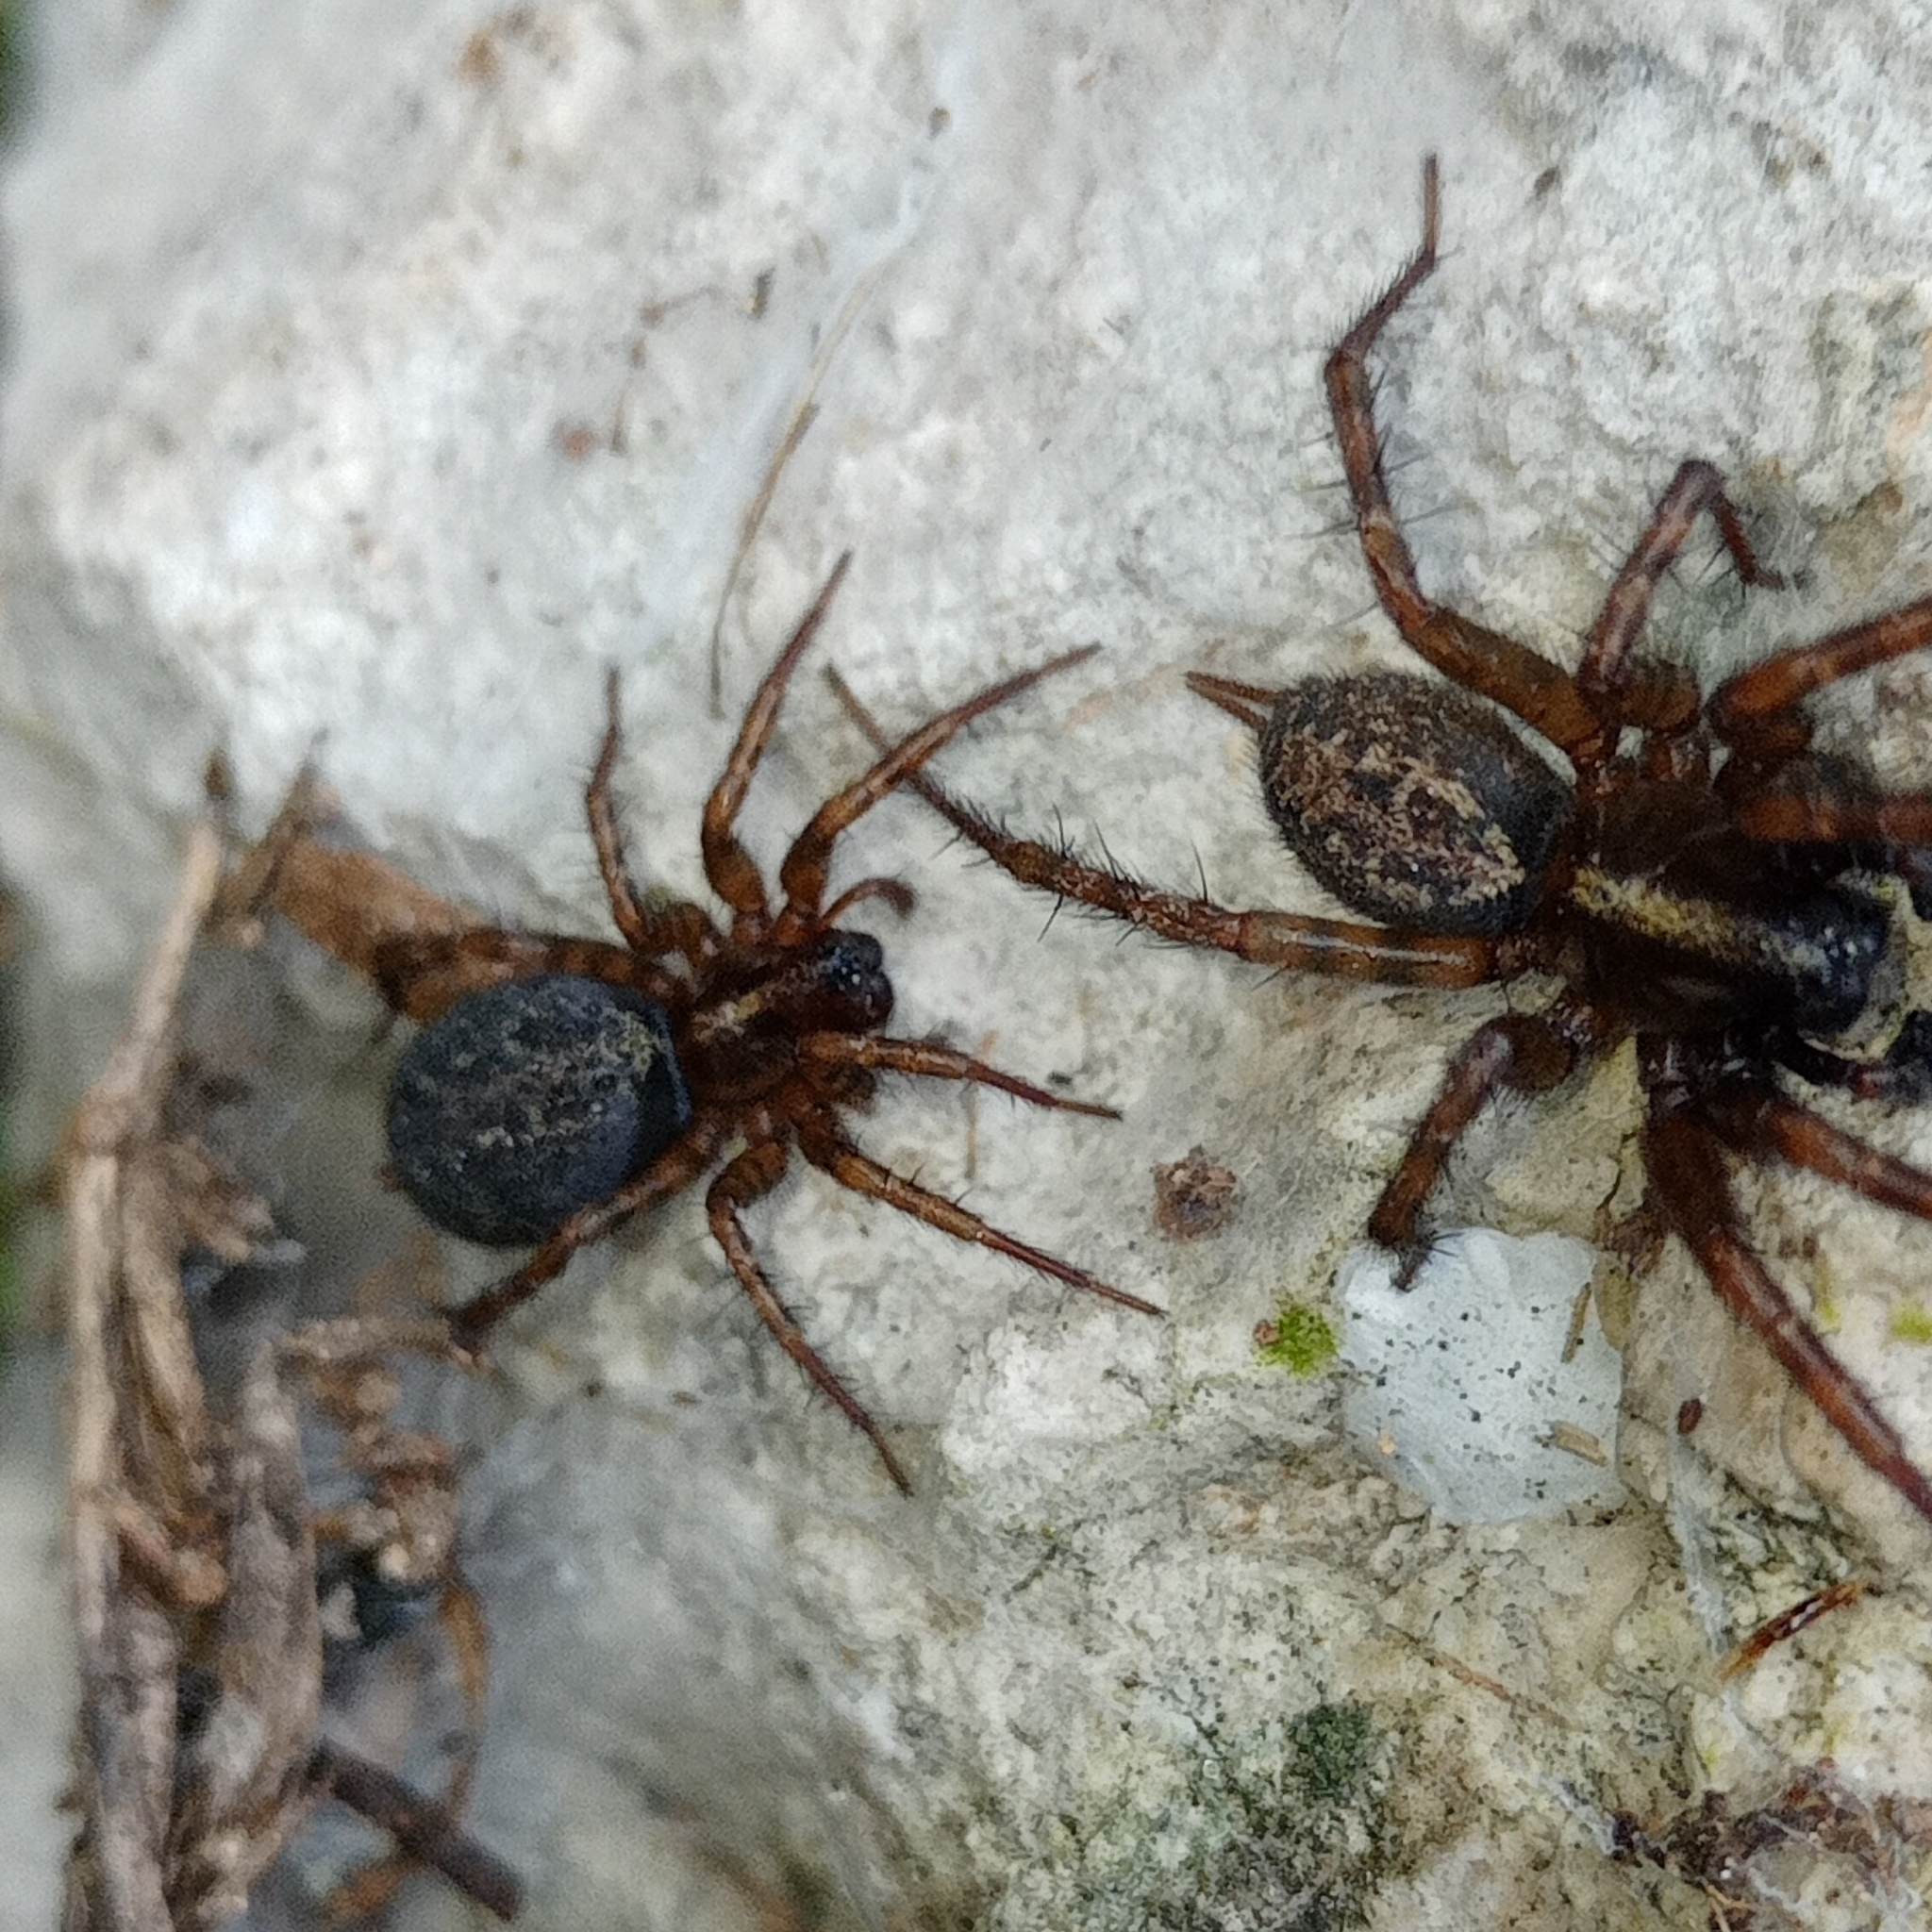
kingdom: Animalia
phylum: Arthropoda
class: Arachnida
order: Araneae
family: Agelenidae
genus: Maimuna
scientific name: Maimuna vestita
